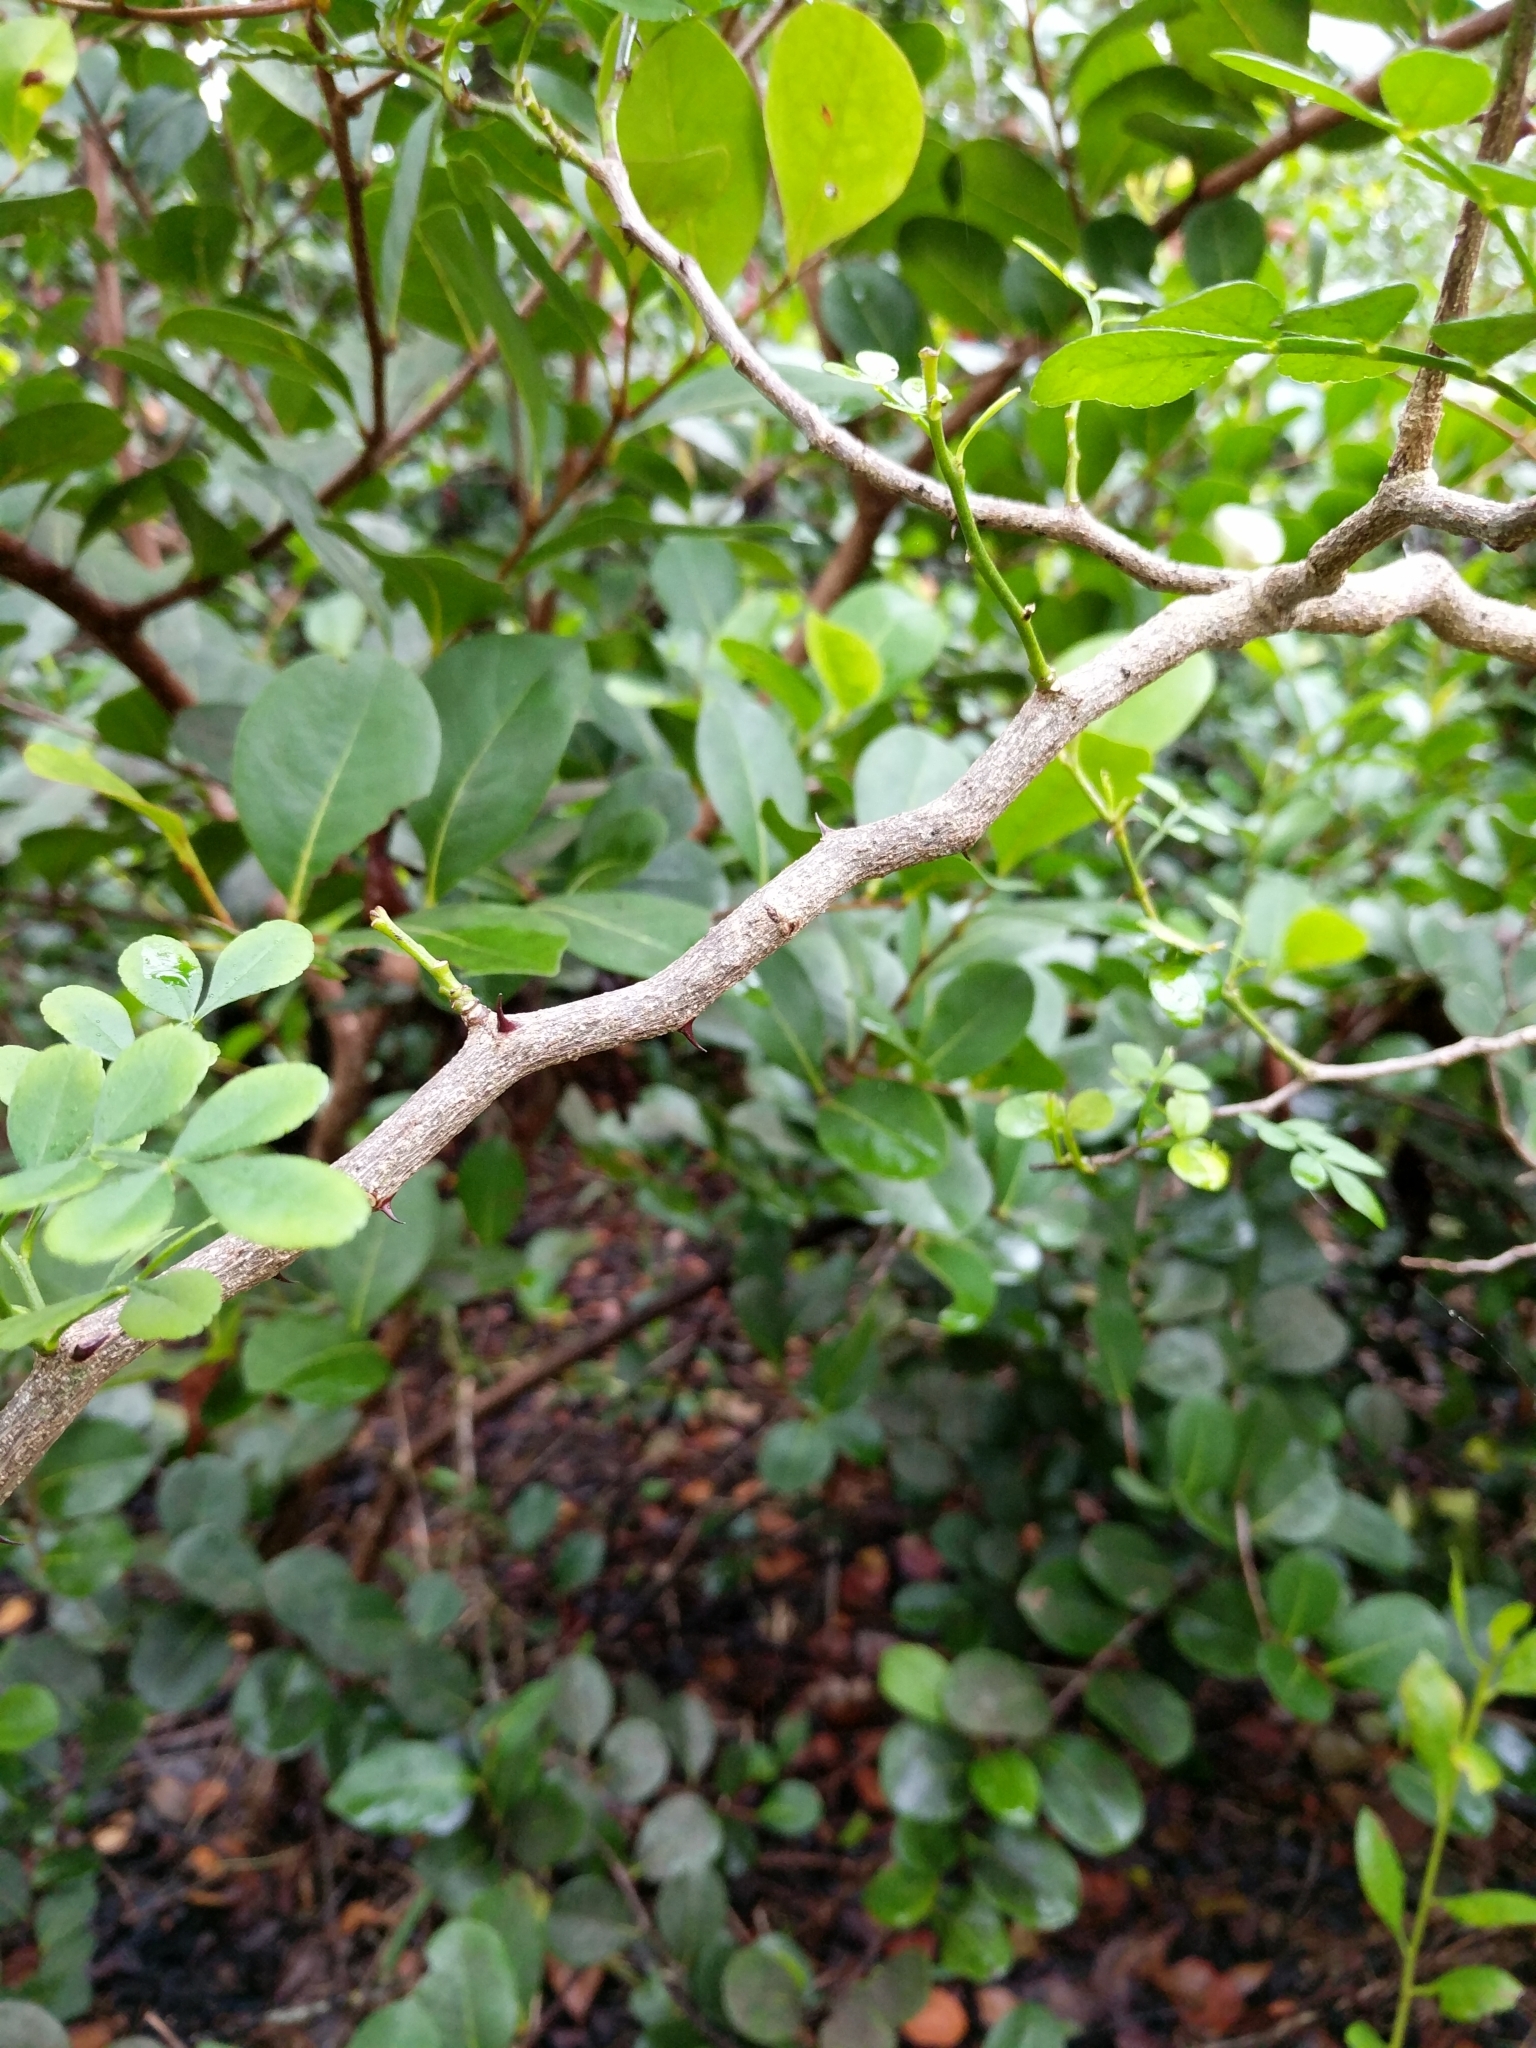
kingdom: Plantae
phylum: Tracheophyta
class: Magnoliopsida
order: Sapindales
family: Rutaceae
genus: Zanthoxylum
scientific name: Zanthoxylum fagara
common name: Lime prickly-ash
